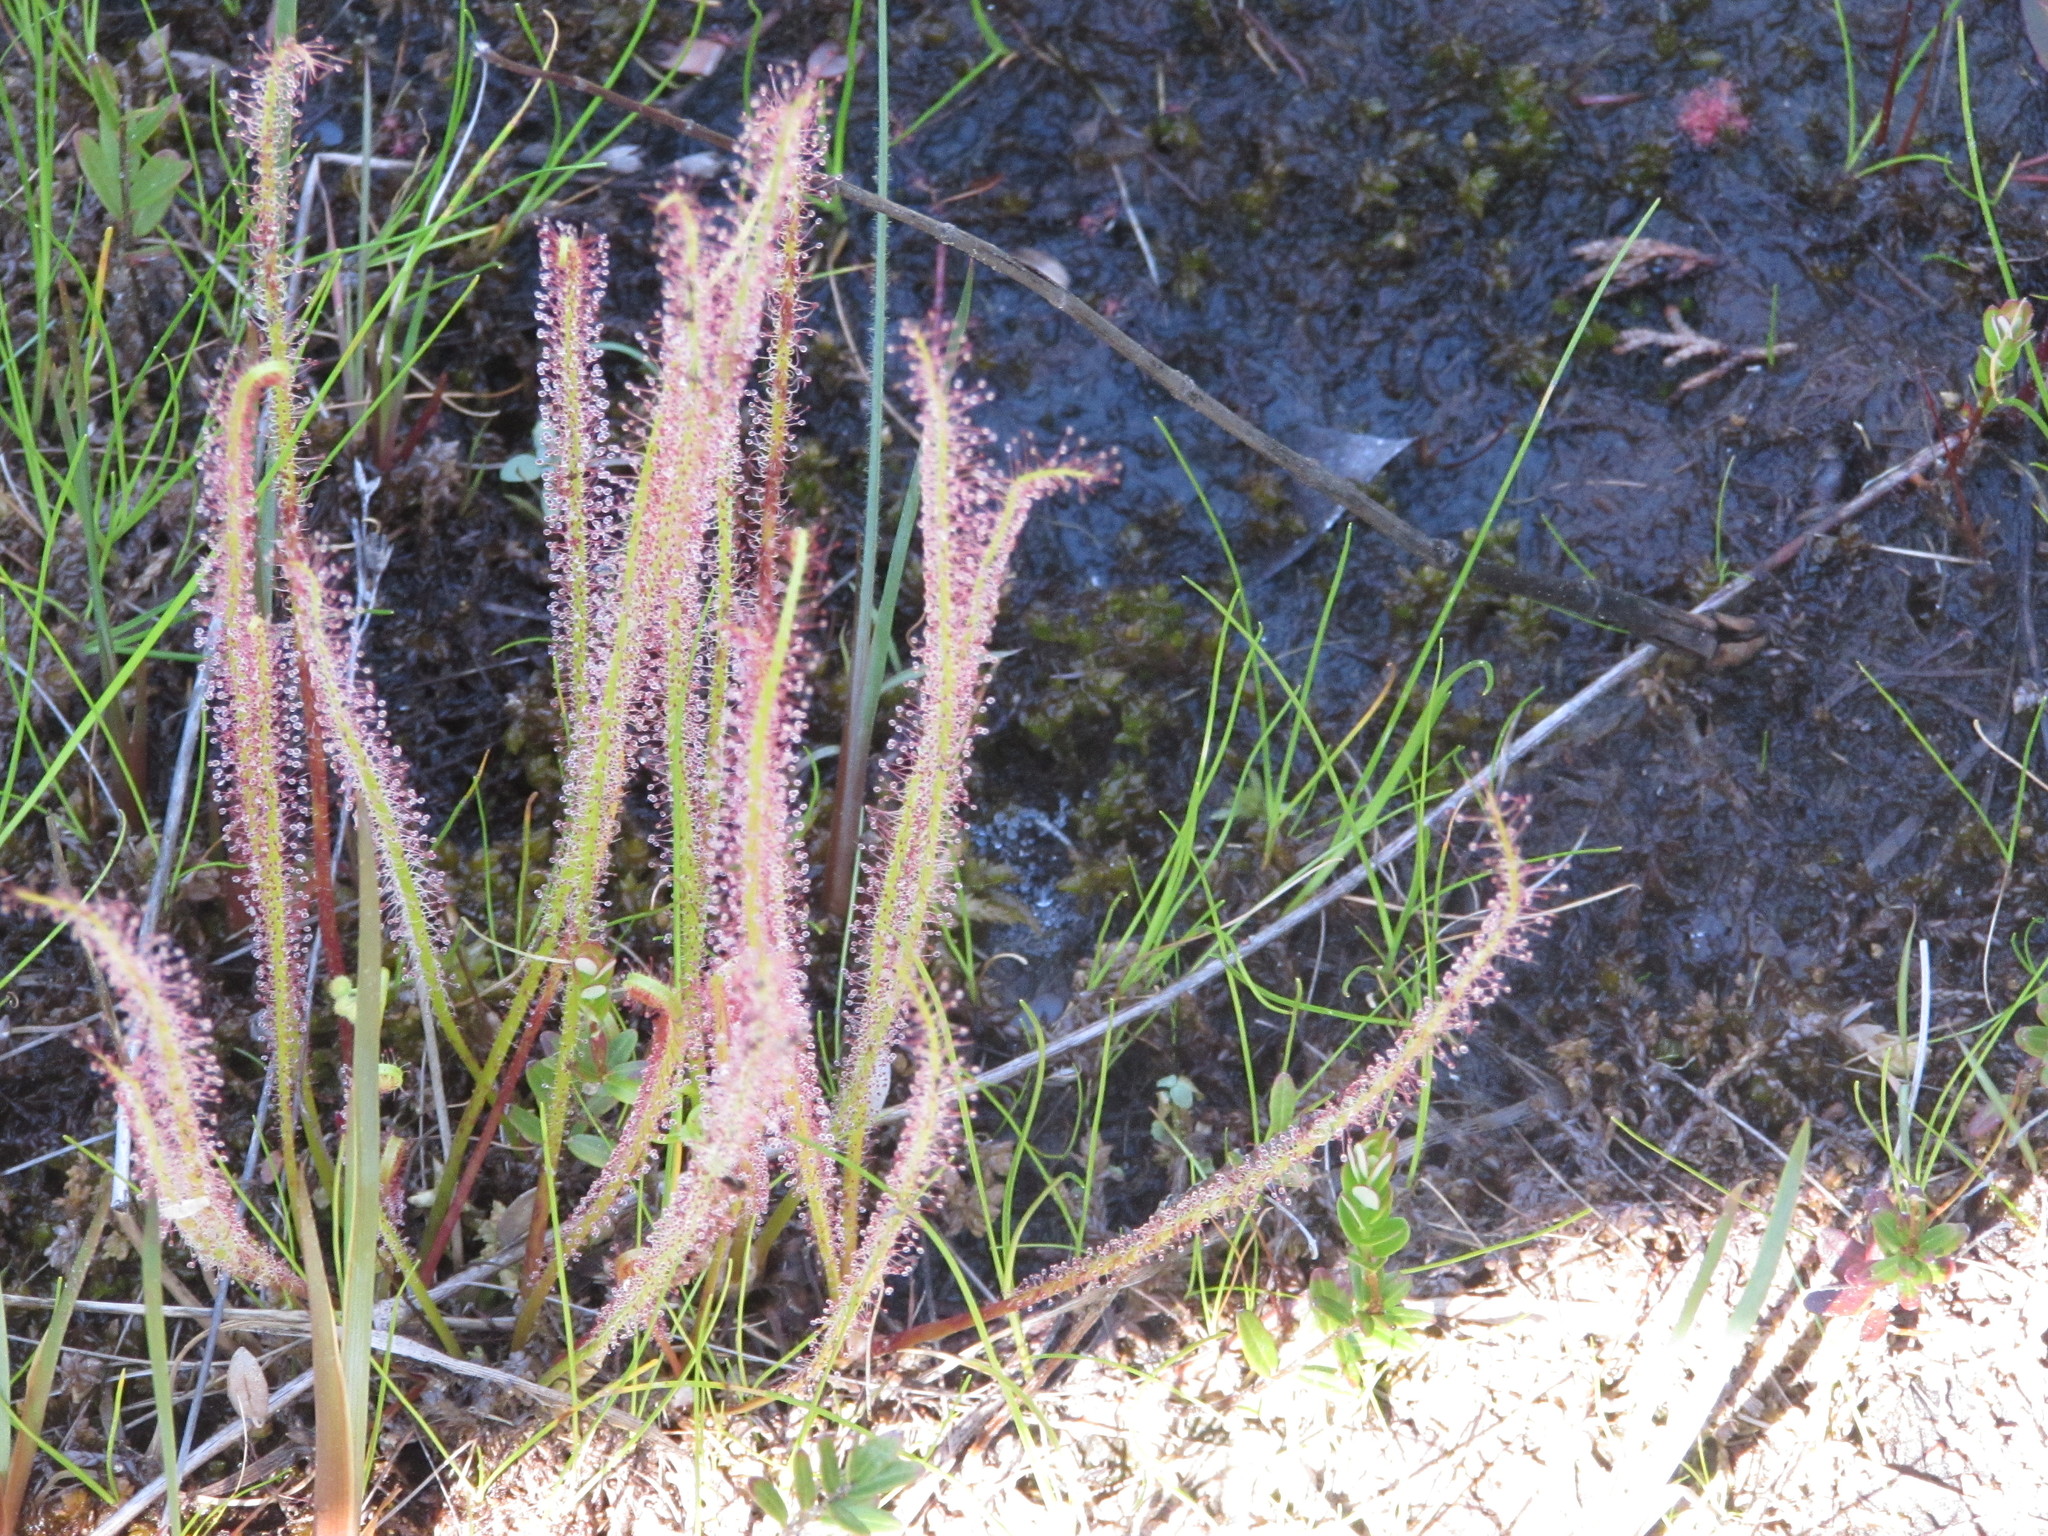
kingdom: Plantae
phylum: Tracheophyta
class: Magnoliopsida
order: Caryophyllales
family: Droseraceae
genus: Drosera
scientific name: Drosera filiformis
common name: Dew-thread
